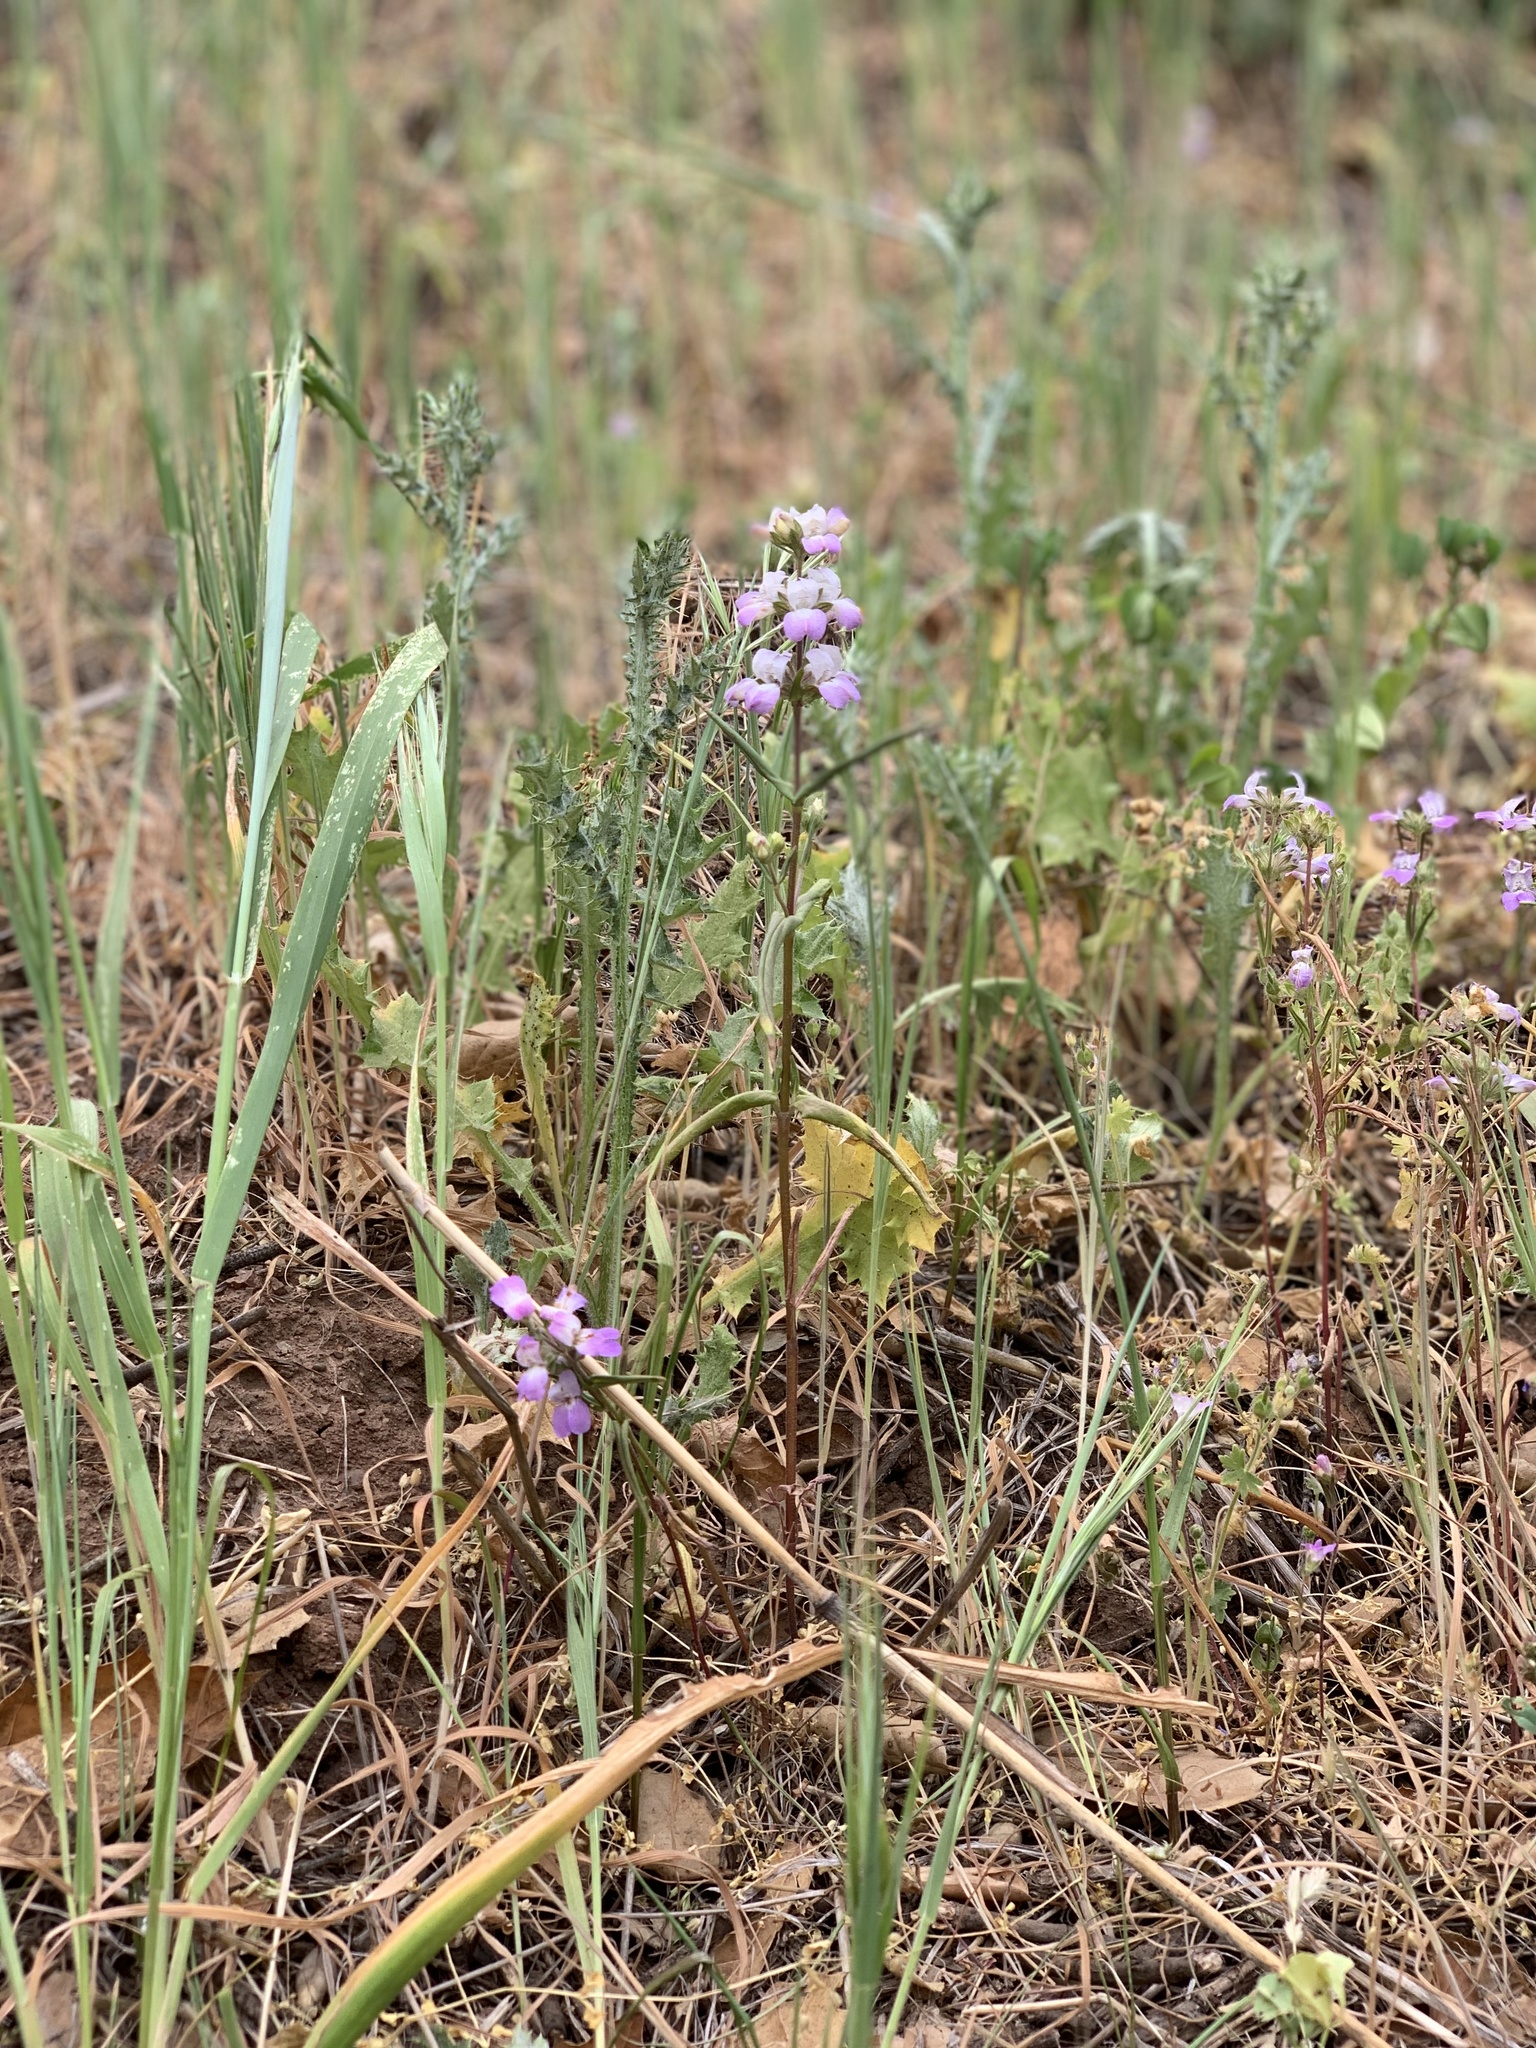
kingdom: Plantae
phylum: Tracheophyta
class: Magnoliopsida
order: Lamiales
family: Plantaginaceae
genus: Collinsia
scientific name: Collinsia heterophylla
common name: Chinese-houses
